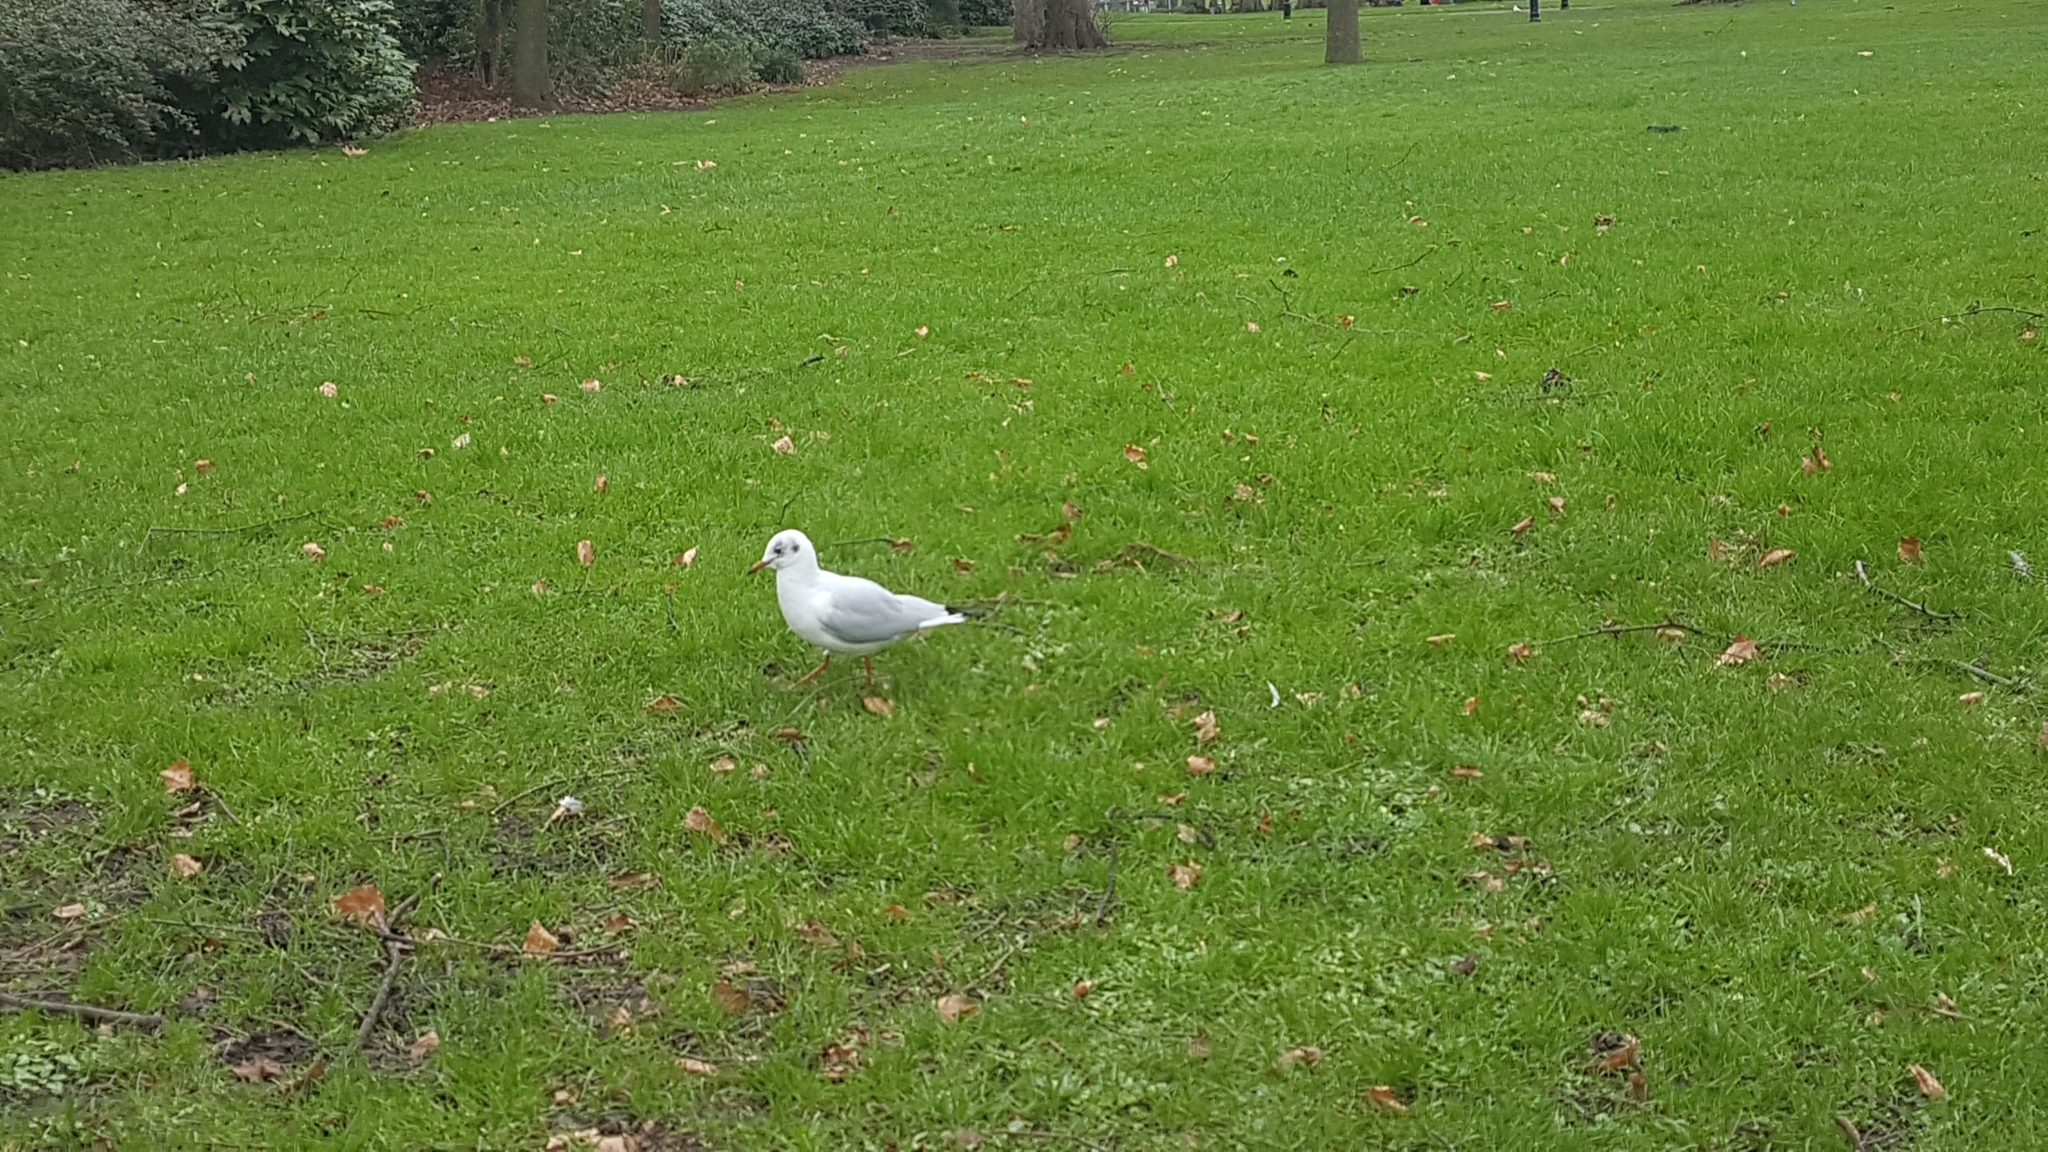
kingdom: Animalia
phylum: Chordata
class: Aves
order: Charadriiformes
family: Laridae
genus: Chroicocephalus
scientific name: Chroicocephalus ridibundus
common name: Black-headed gull
